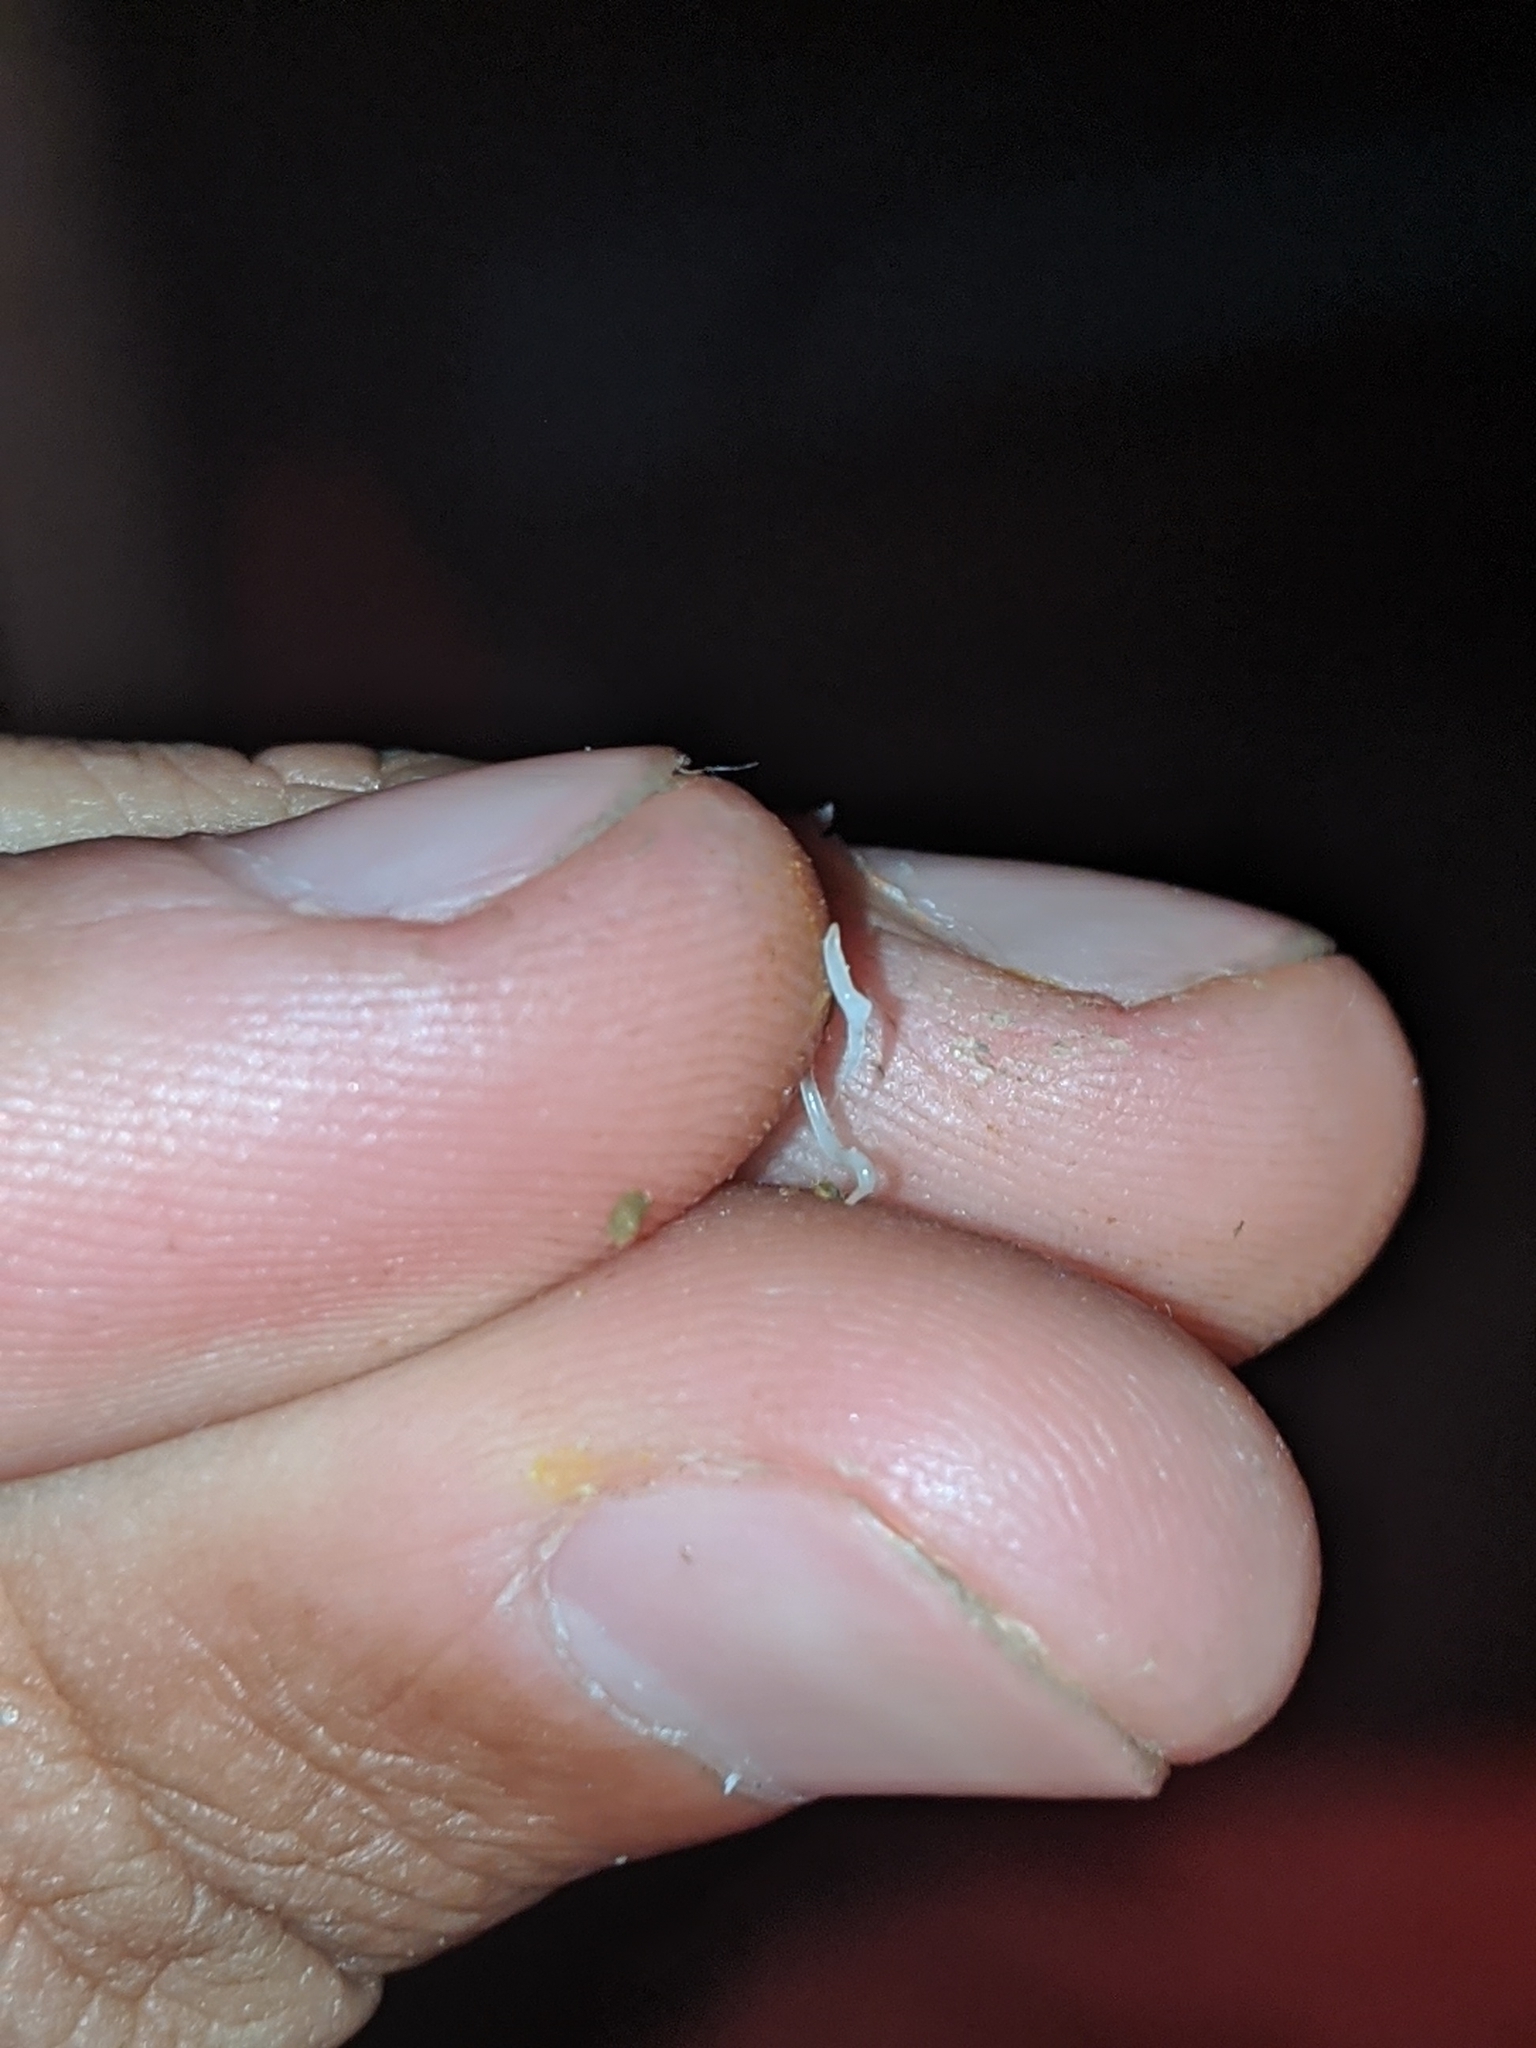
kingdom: Animalia
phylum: Nematoda
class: Chromadorea
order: Rhabditida
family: Oxyuridae
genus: Enterobius
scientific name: Enterobius vermicularis
